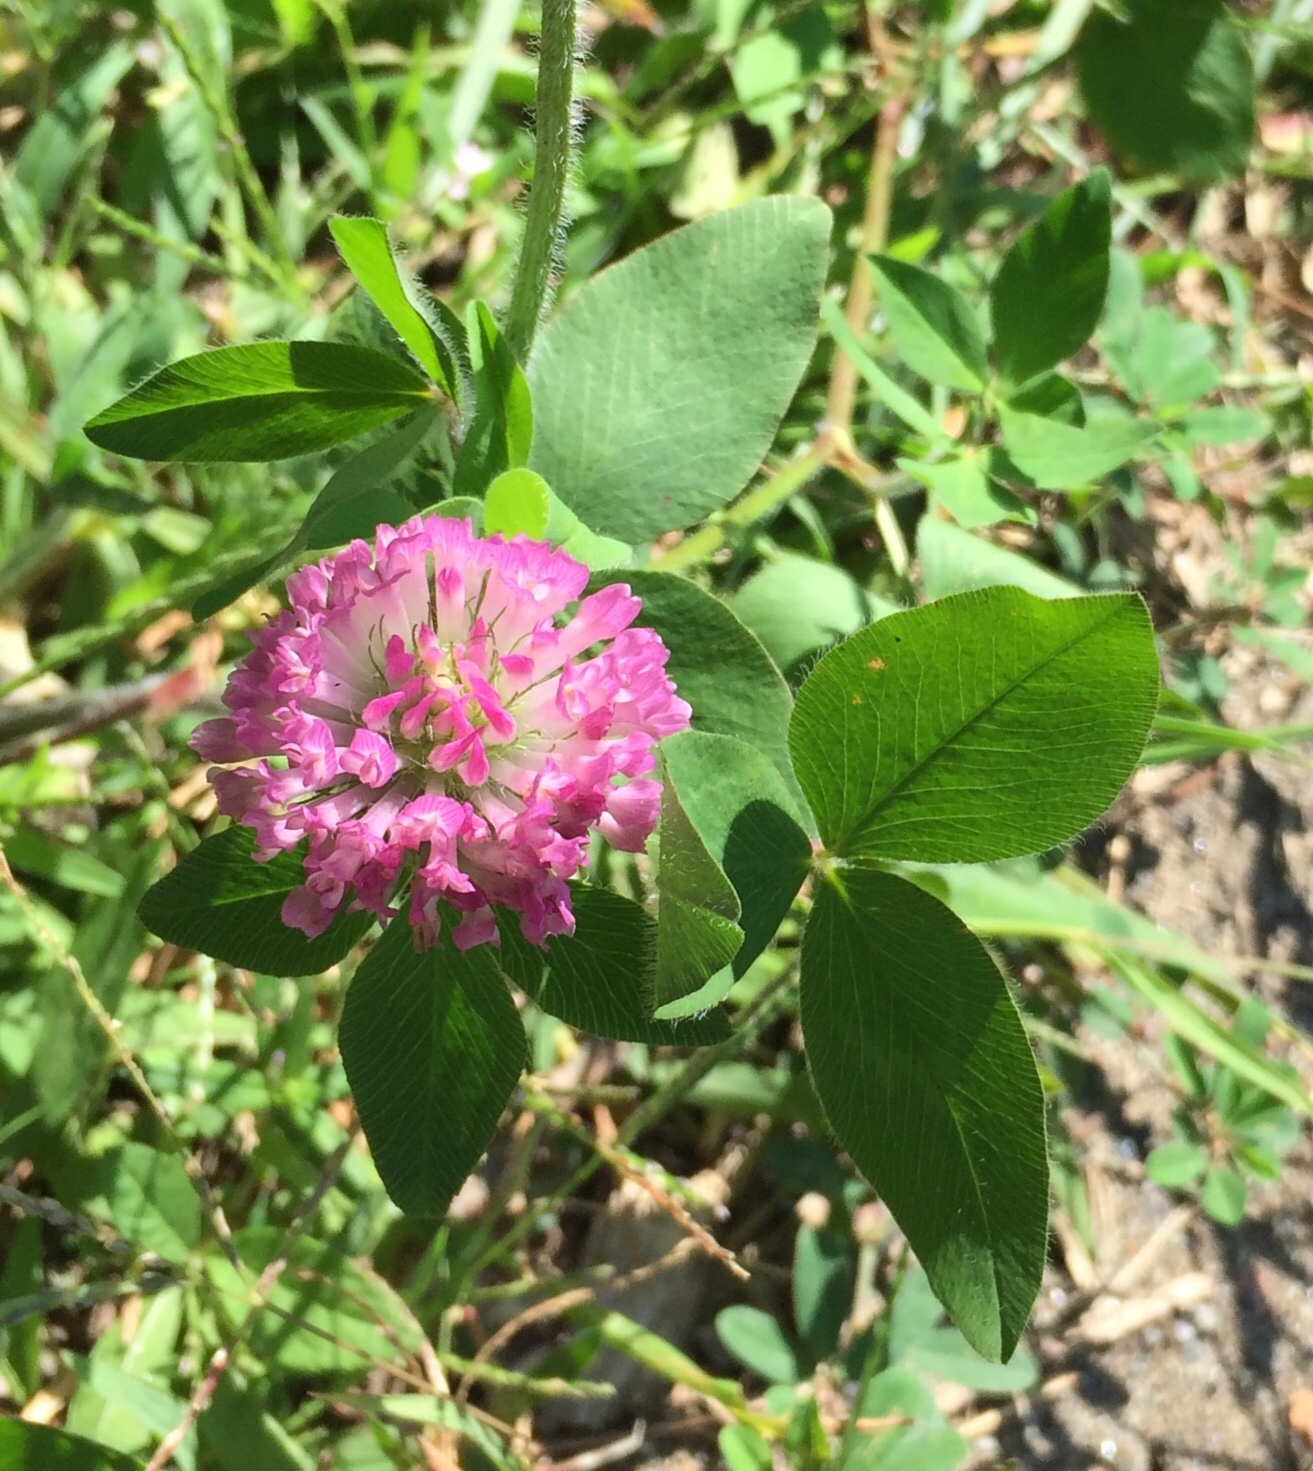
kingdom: Plantae
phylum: Tracheophyta
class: Magnoliopsida
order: Fabales
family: Fabaceae
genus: Trifolium
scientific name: Trifolium pratense
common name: Red clover
